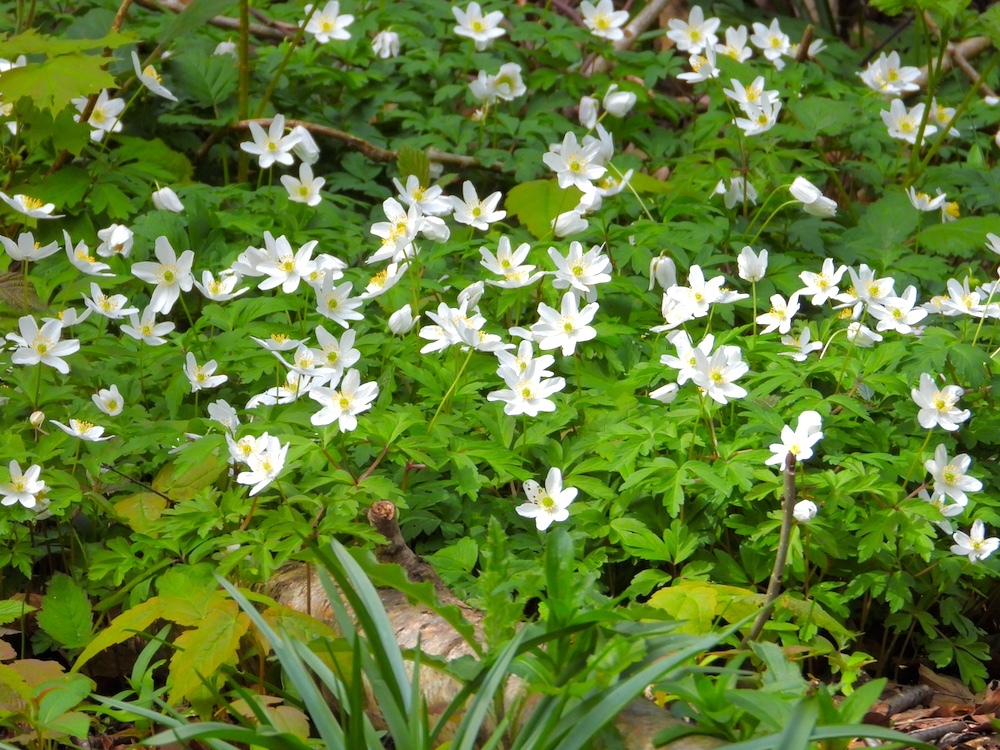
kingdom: Plantae
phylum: Tracheophyta
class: Magnoliopsida
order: Ranunculales
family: Ranunculaceae
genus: Anemone
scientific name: Anemone nemorosa
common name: Wood anemone
